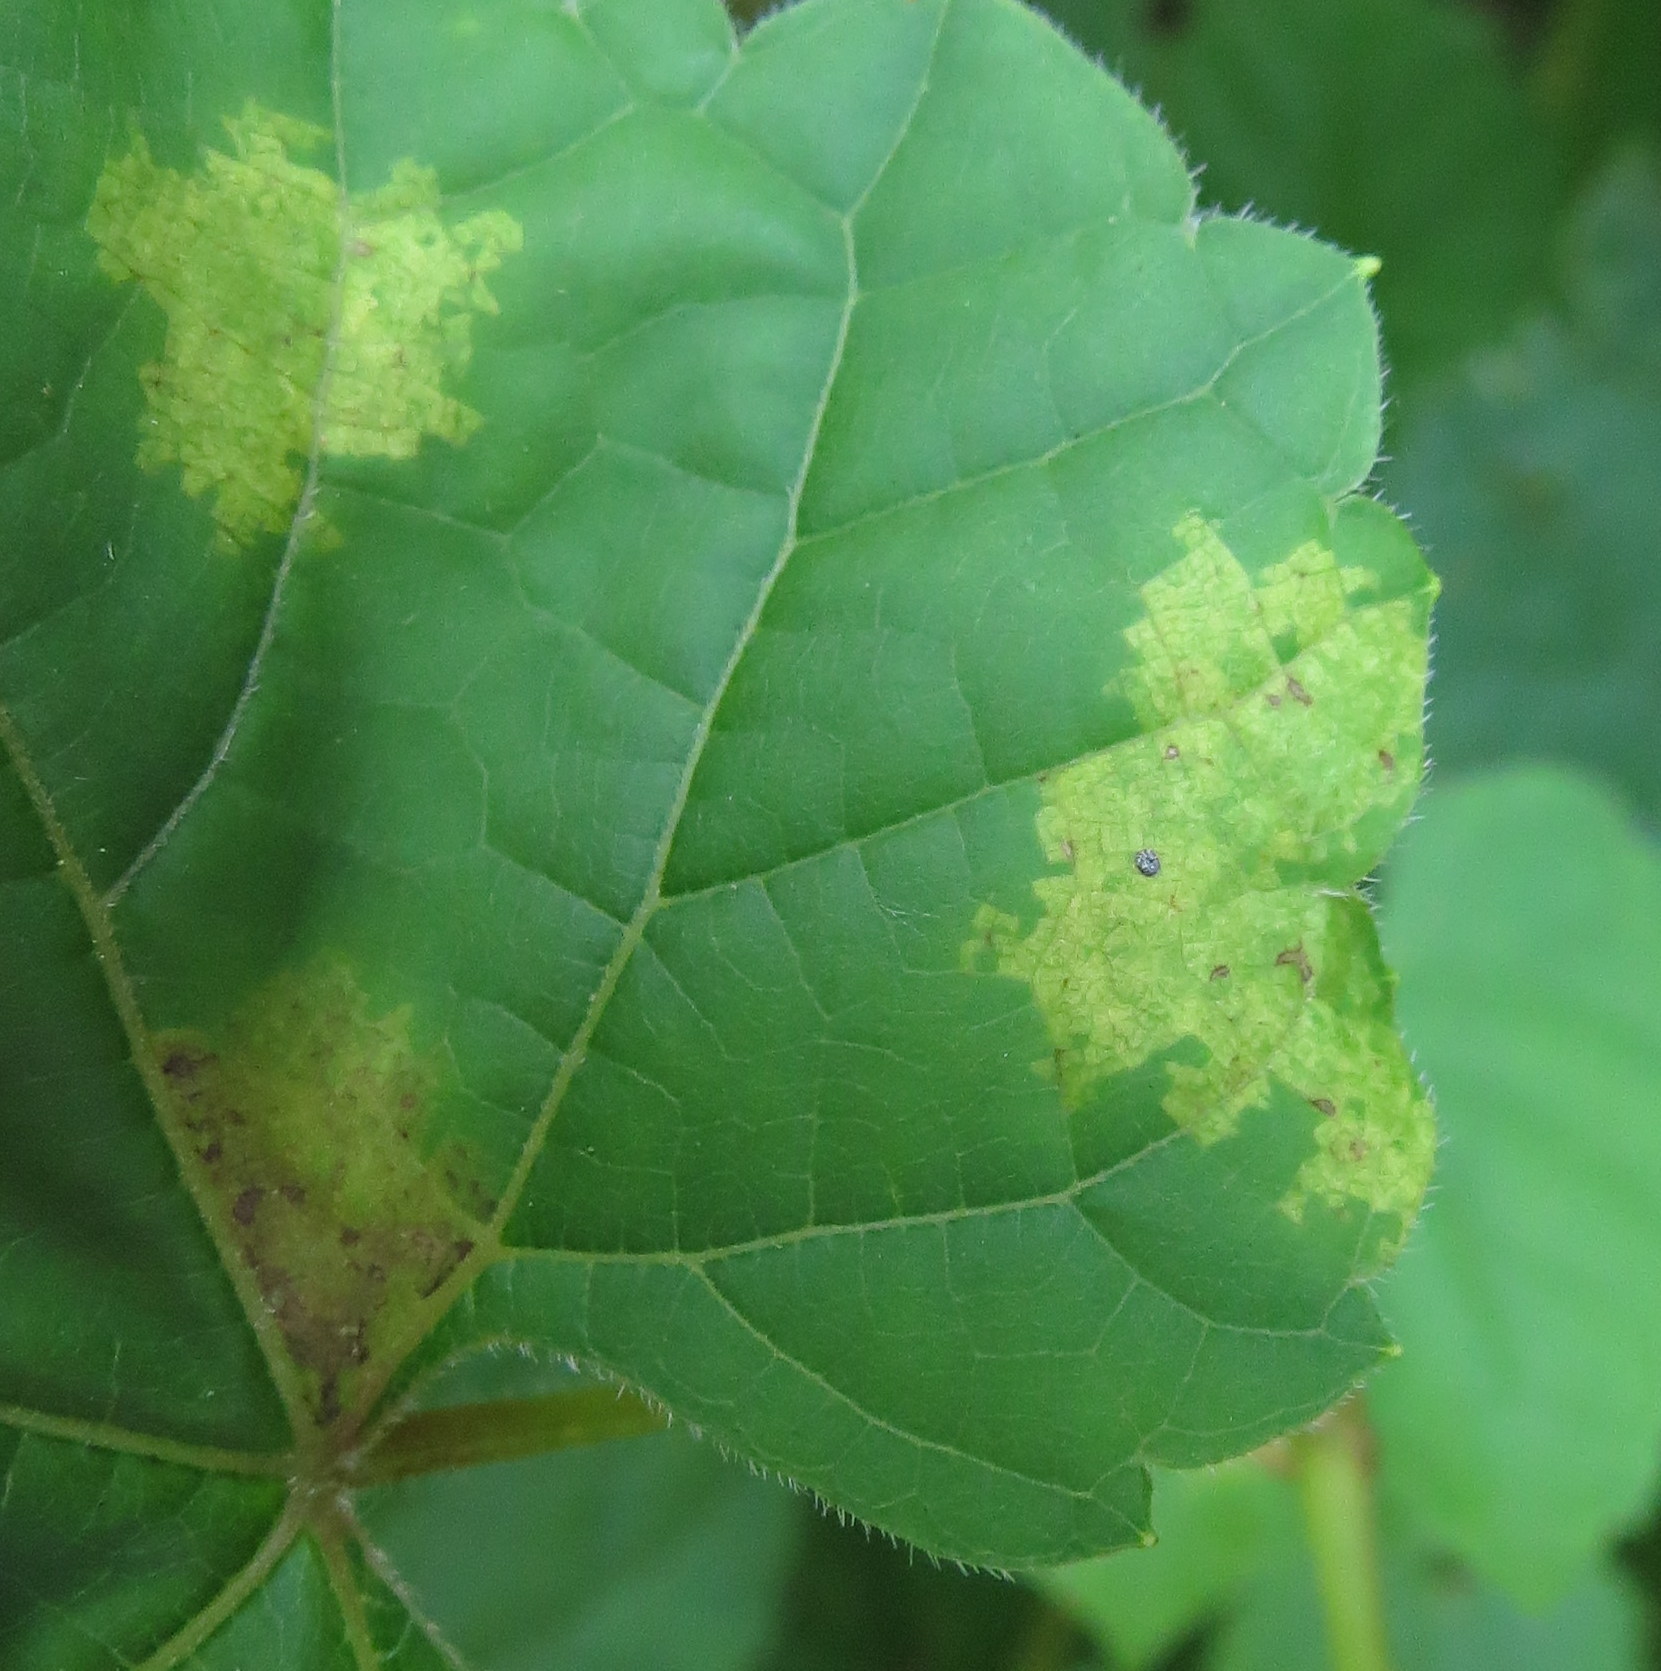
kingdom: Chromista
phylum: Oomycota
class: Peronosporea
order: Peronosporales
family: Peronosporaceae
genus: Plasmopara
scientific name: Plasmopara viticola
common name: Grapevine downy mildew
